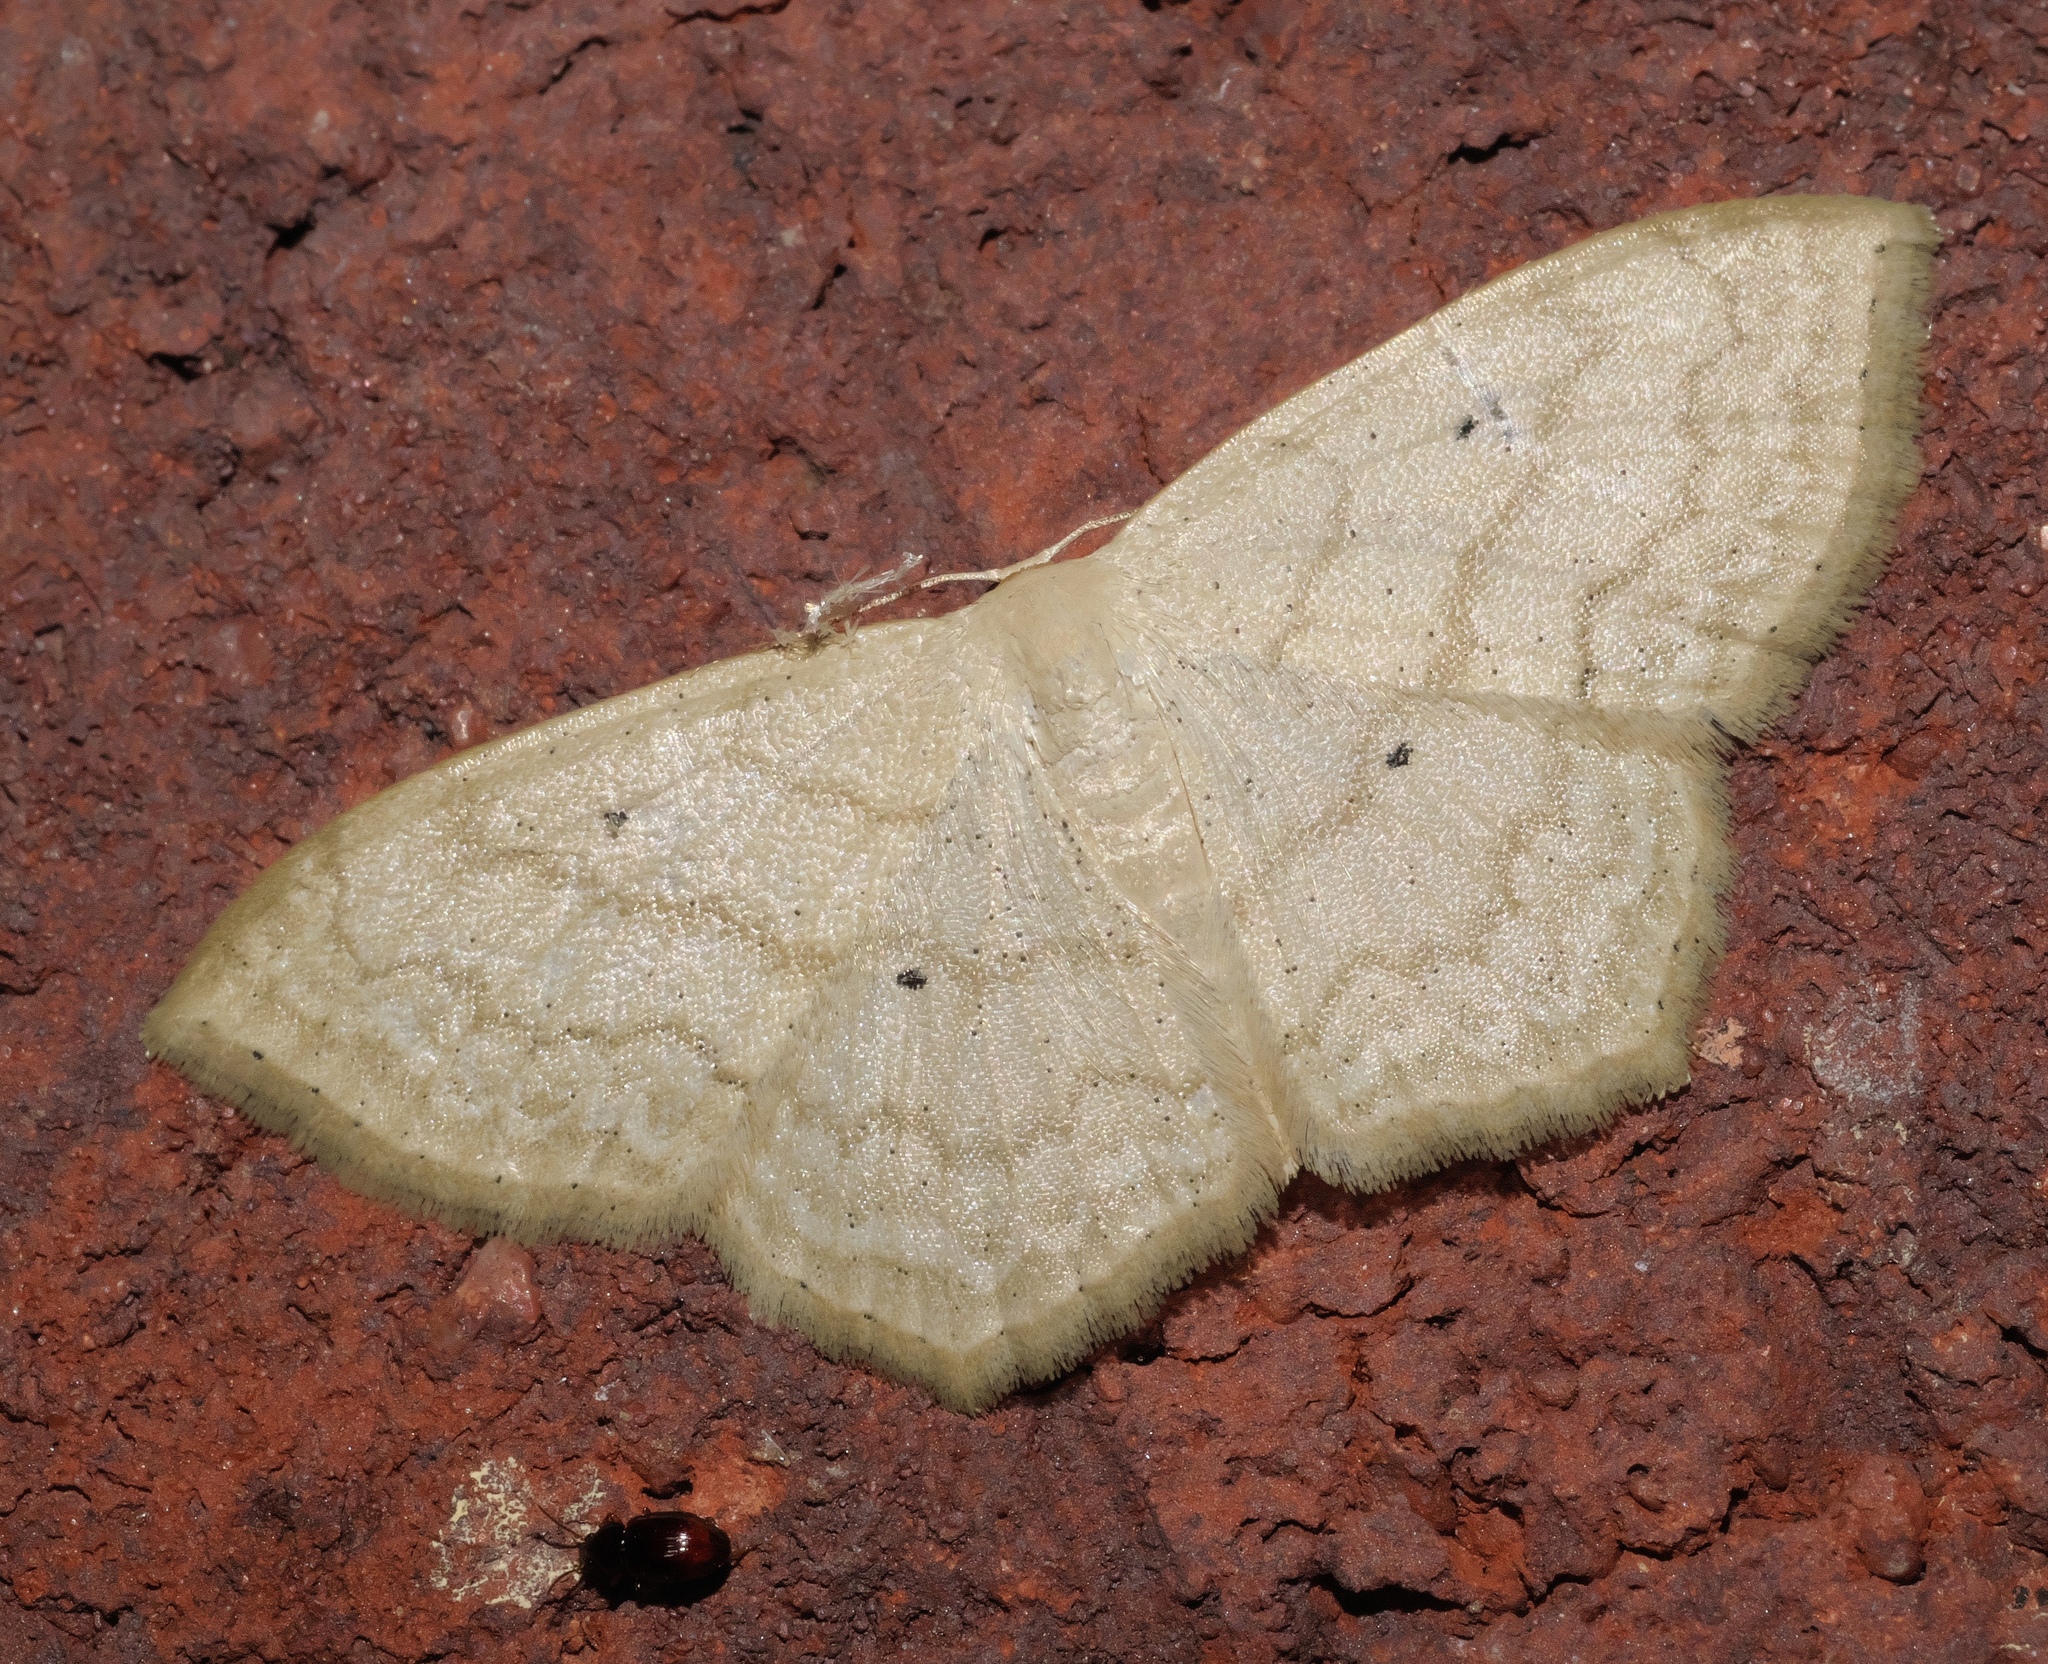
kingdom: Animalia
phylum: Arthropoda
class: Insecta
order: Lepidoptera
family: Geometridae
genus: Scopula
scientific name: Scopula limboundata
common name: Large lace border
